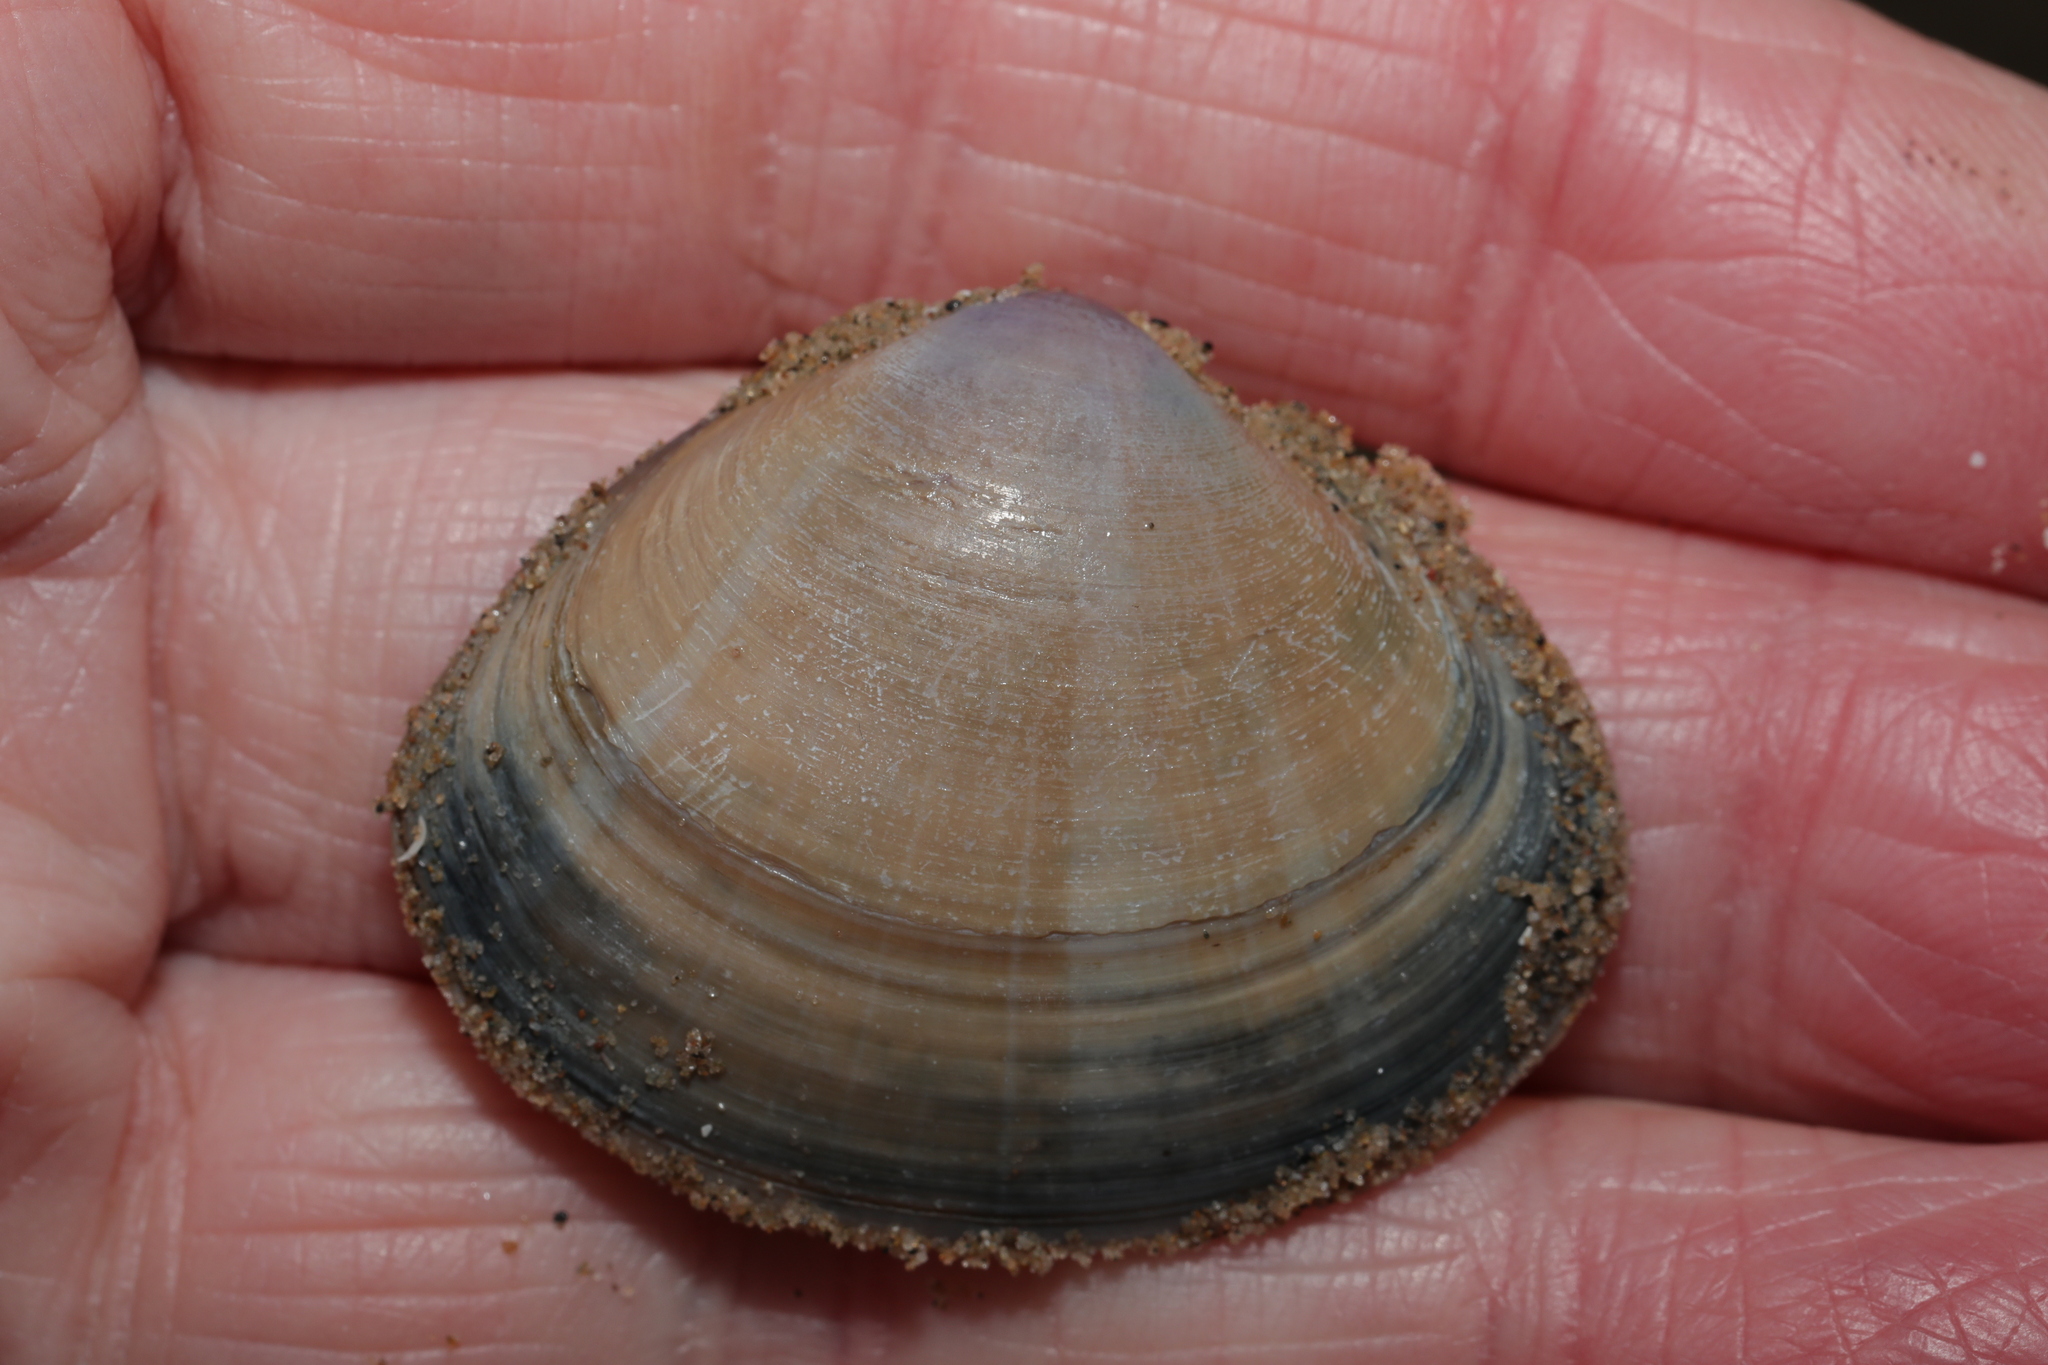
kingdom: Animalia
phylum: Mollusca
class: Bivalvia
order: Venerida
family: Mactridae
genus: Mactra
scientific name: Mactra stultorum
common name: Rayed trough shell
